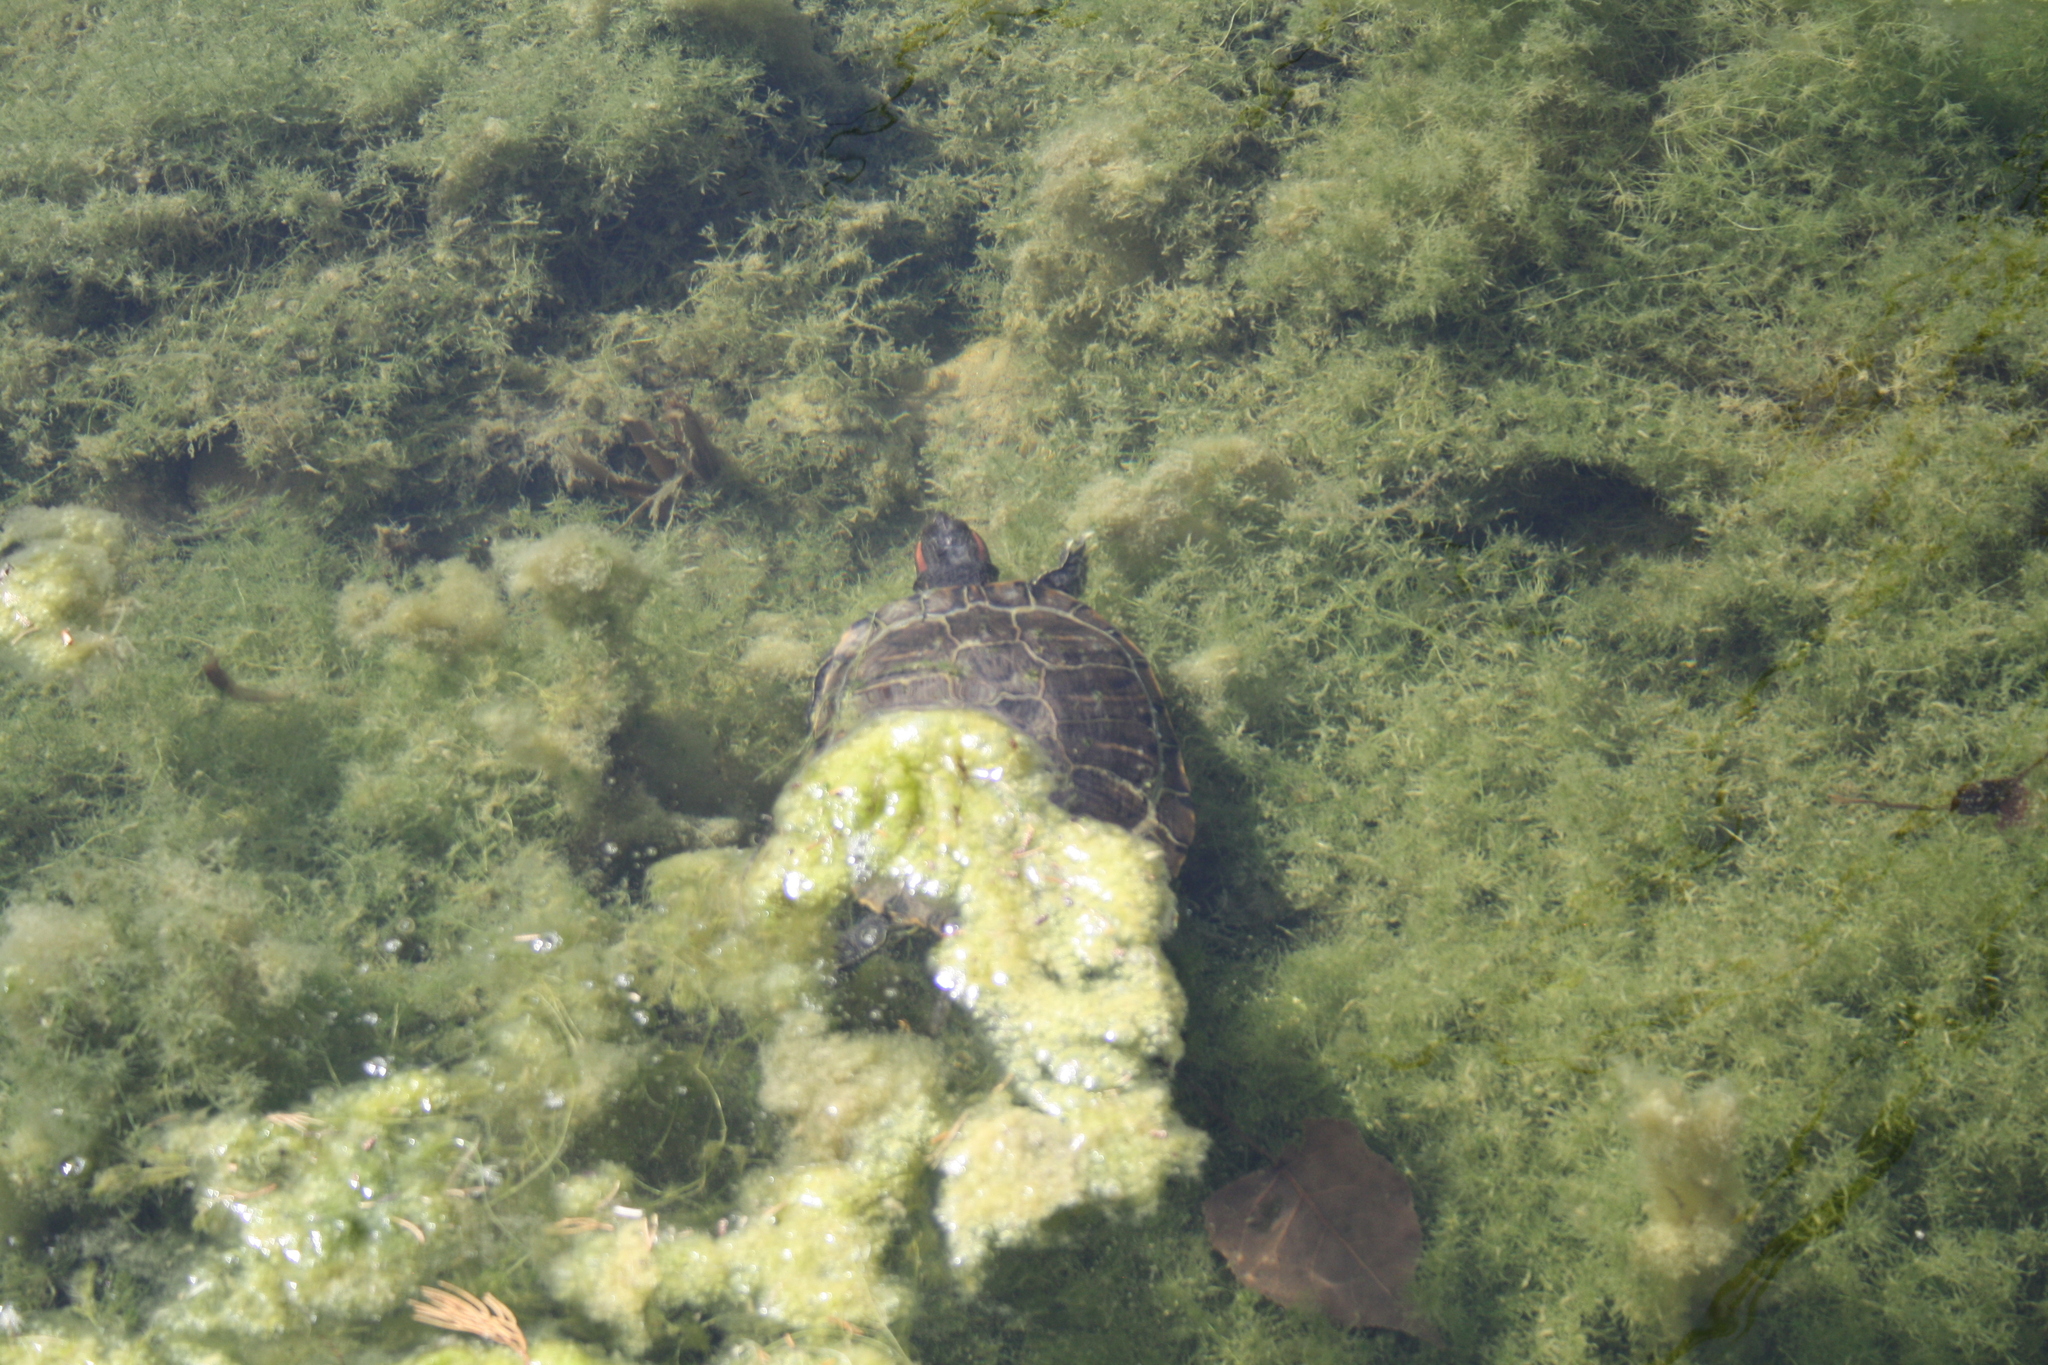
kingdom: Animalia
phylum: Chordata
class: Testudines
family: Emydidae
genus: Trachemys
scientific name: Trachemys scripta
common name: Slider
